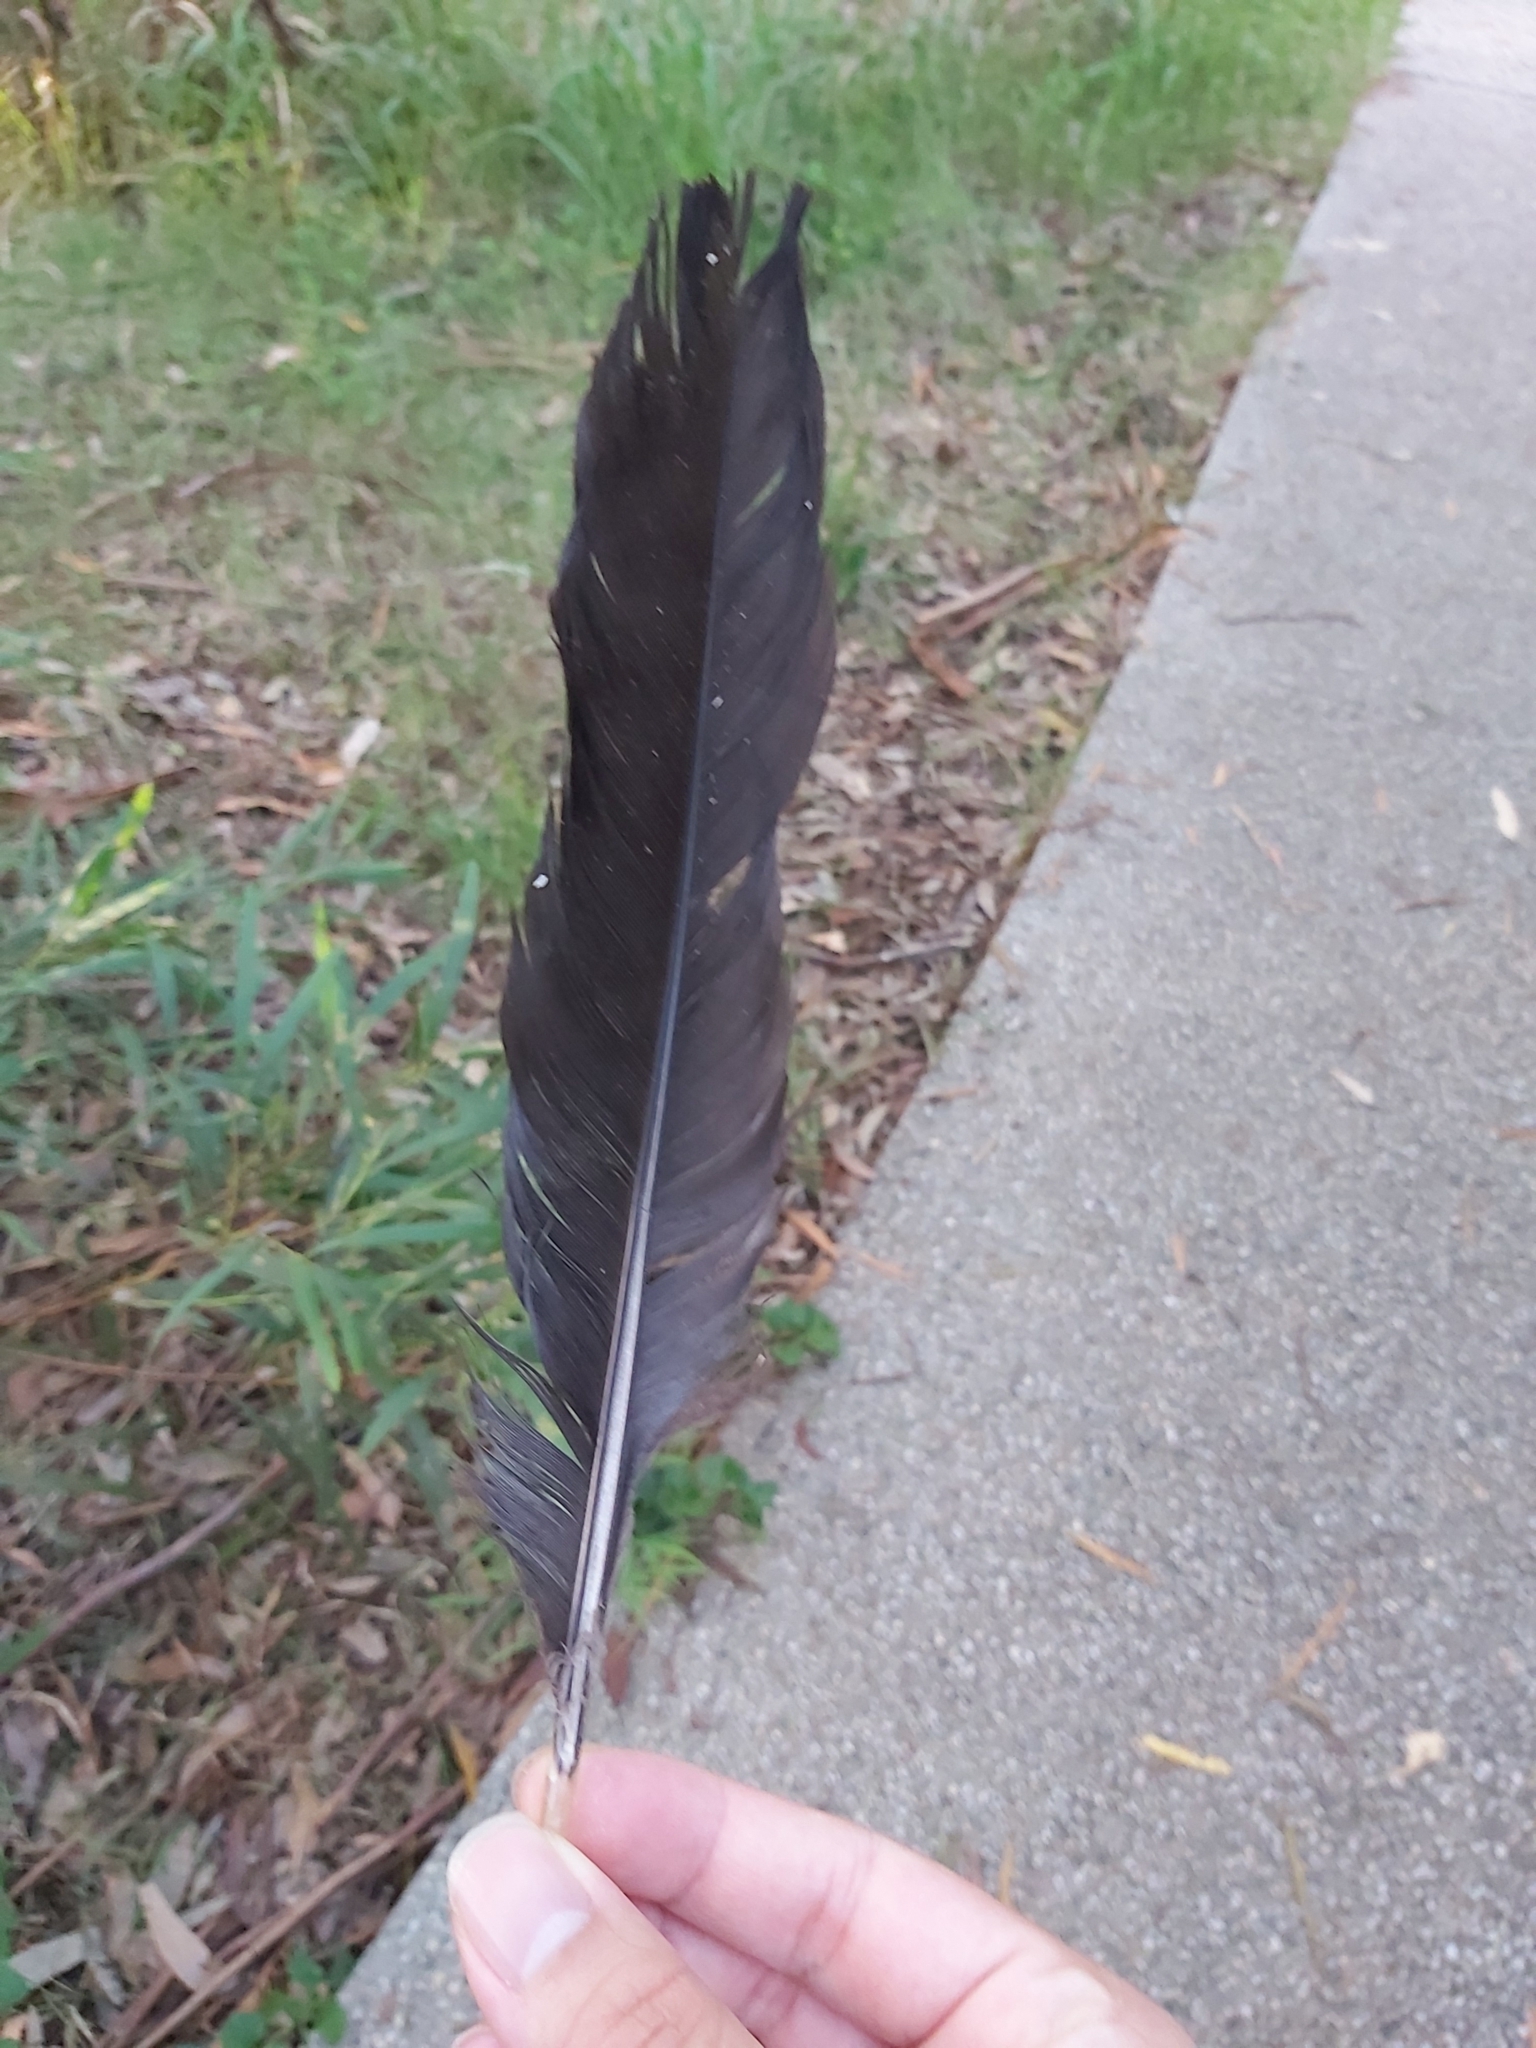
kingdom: Animalia
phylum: Chordata
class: Aves
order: Galliformes
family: Megapodiidae
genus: Alectura
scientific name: Alectura lathami
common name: Australian brushturkey
